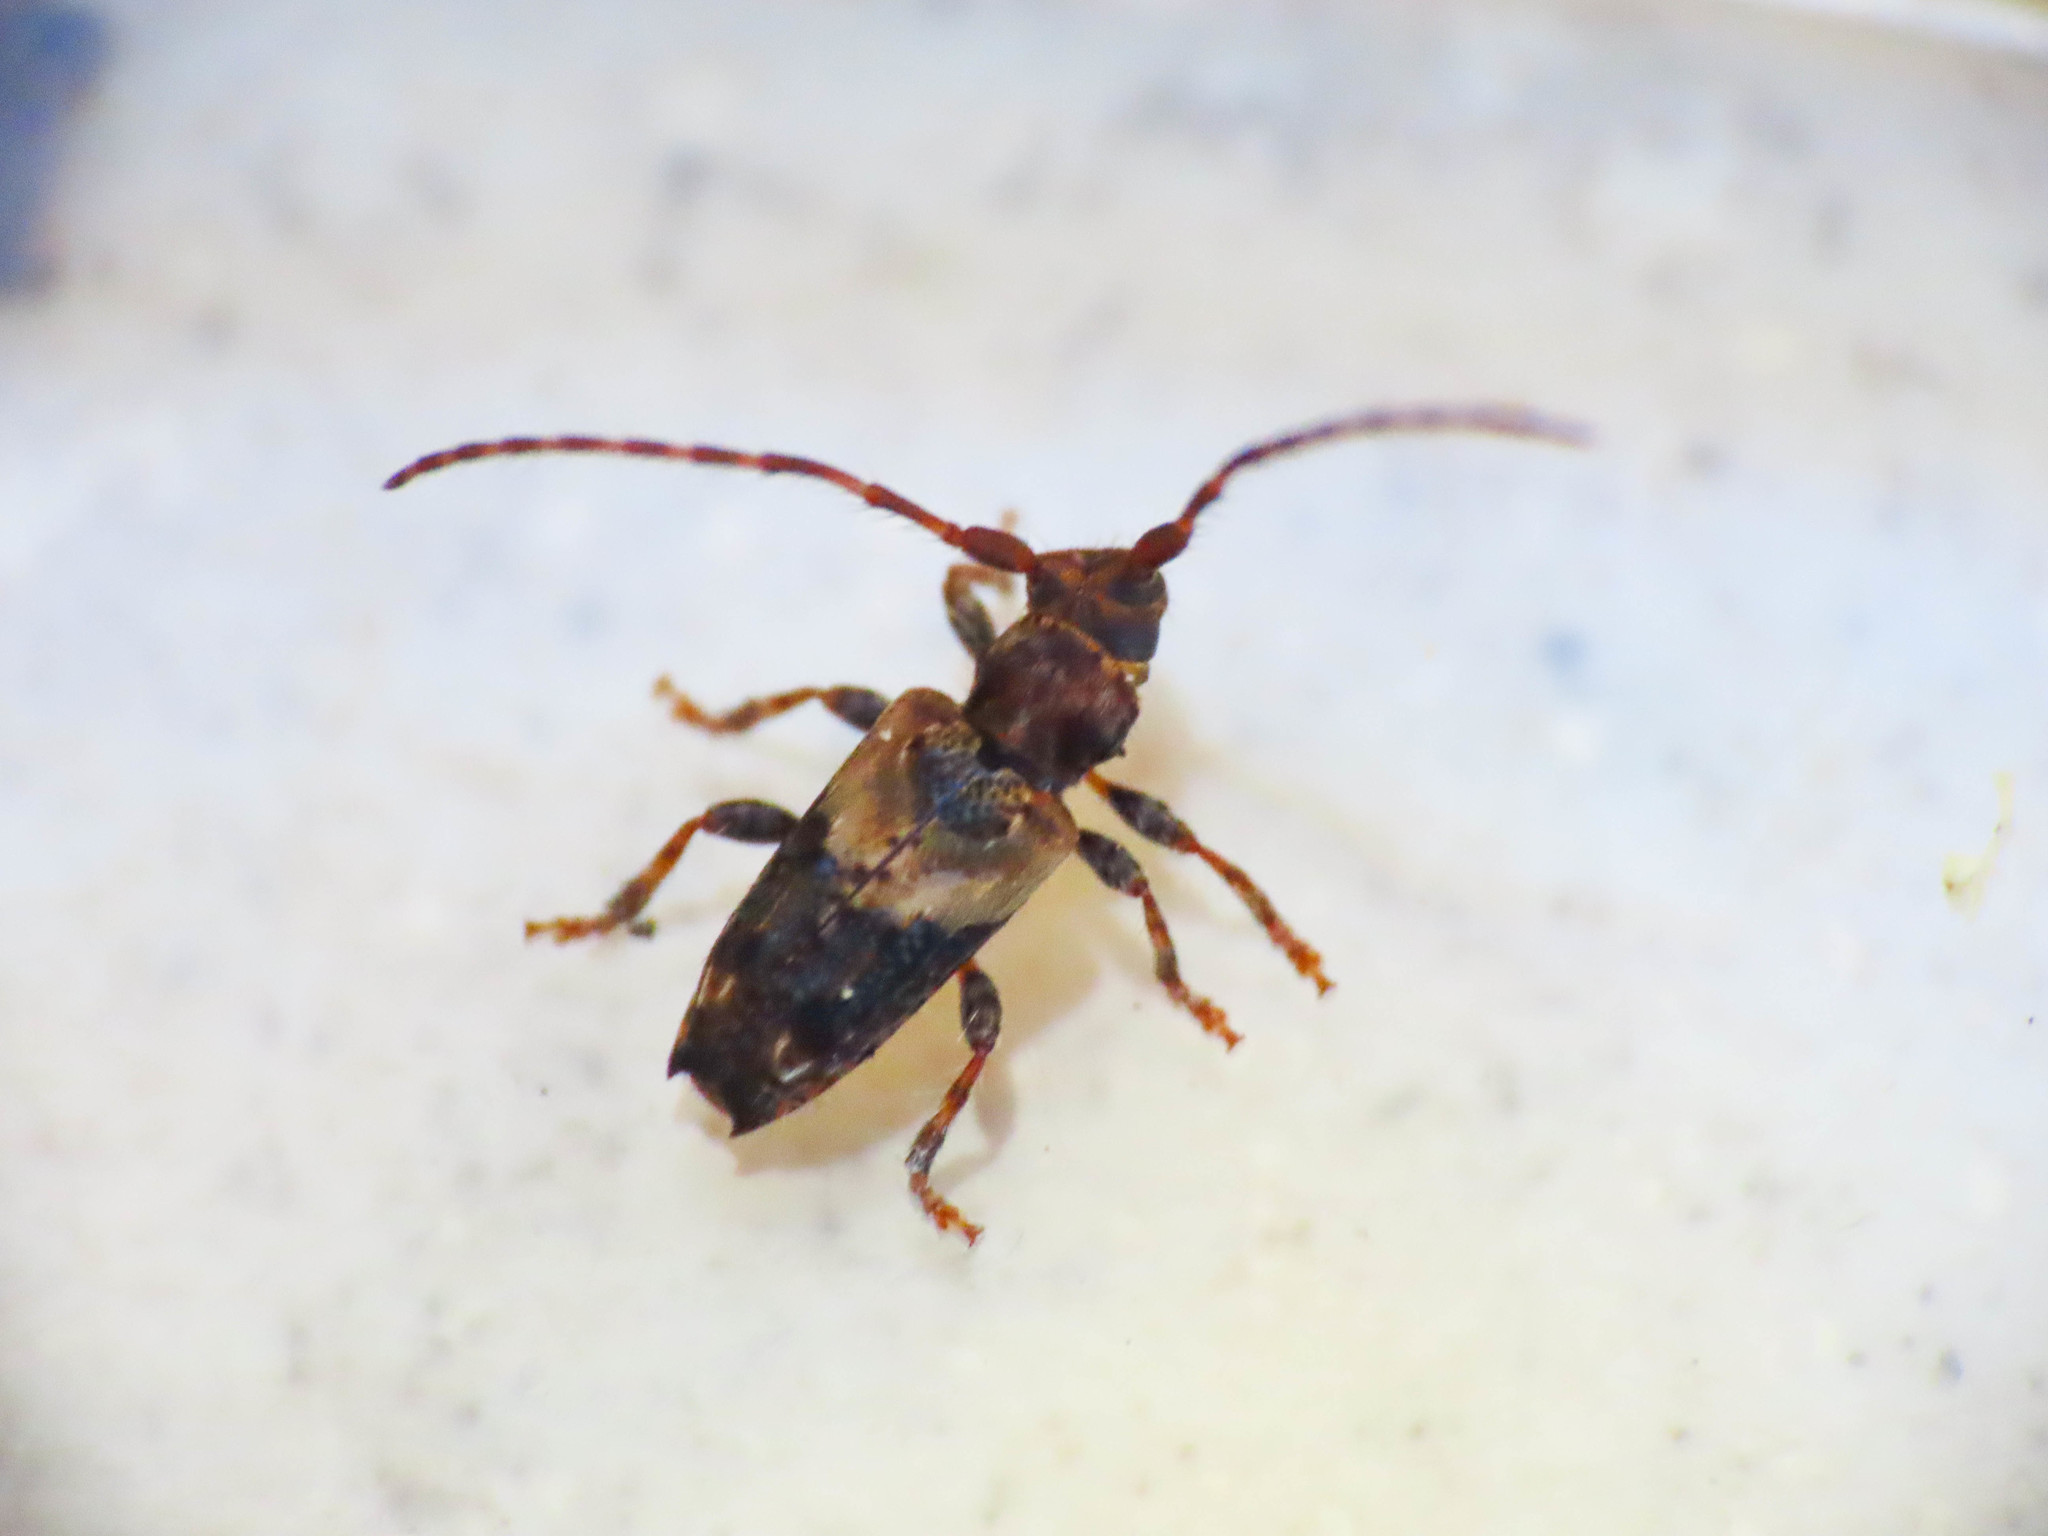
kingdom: Animalia
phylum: Arthropoda
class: Insecta
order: Coleoptera
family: Cerambycidae
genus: Pogonocherus
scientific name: Pogonocherus hispidus
